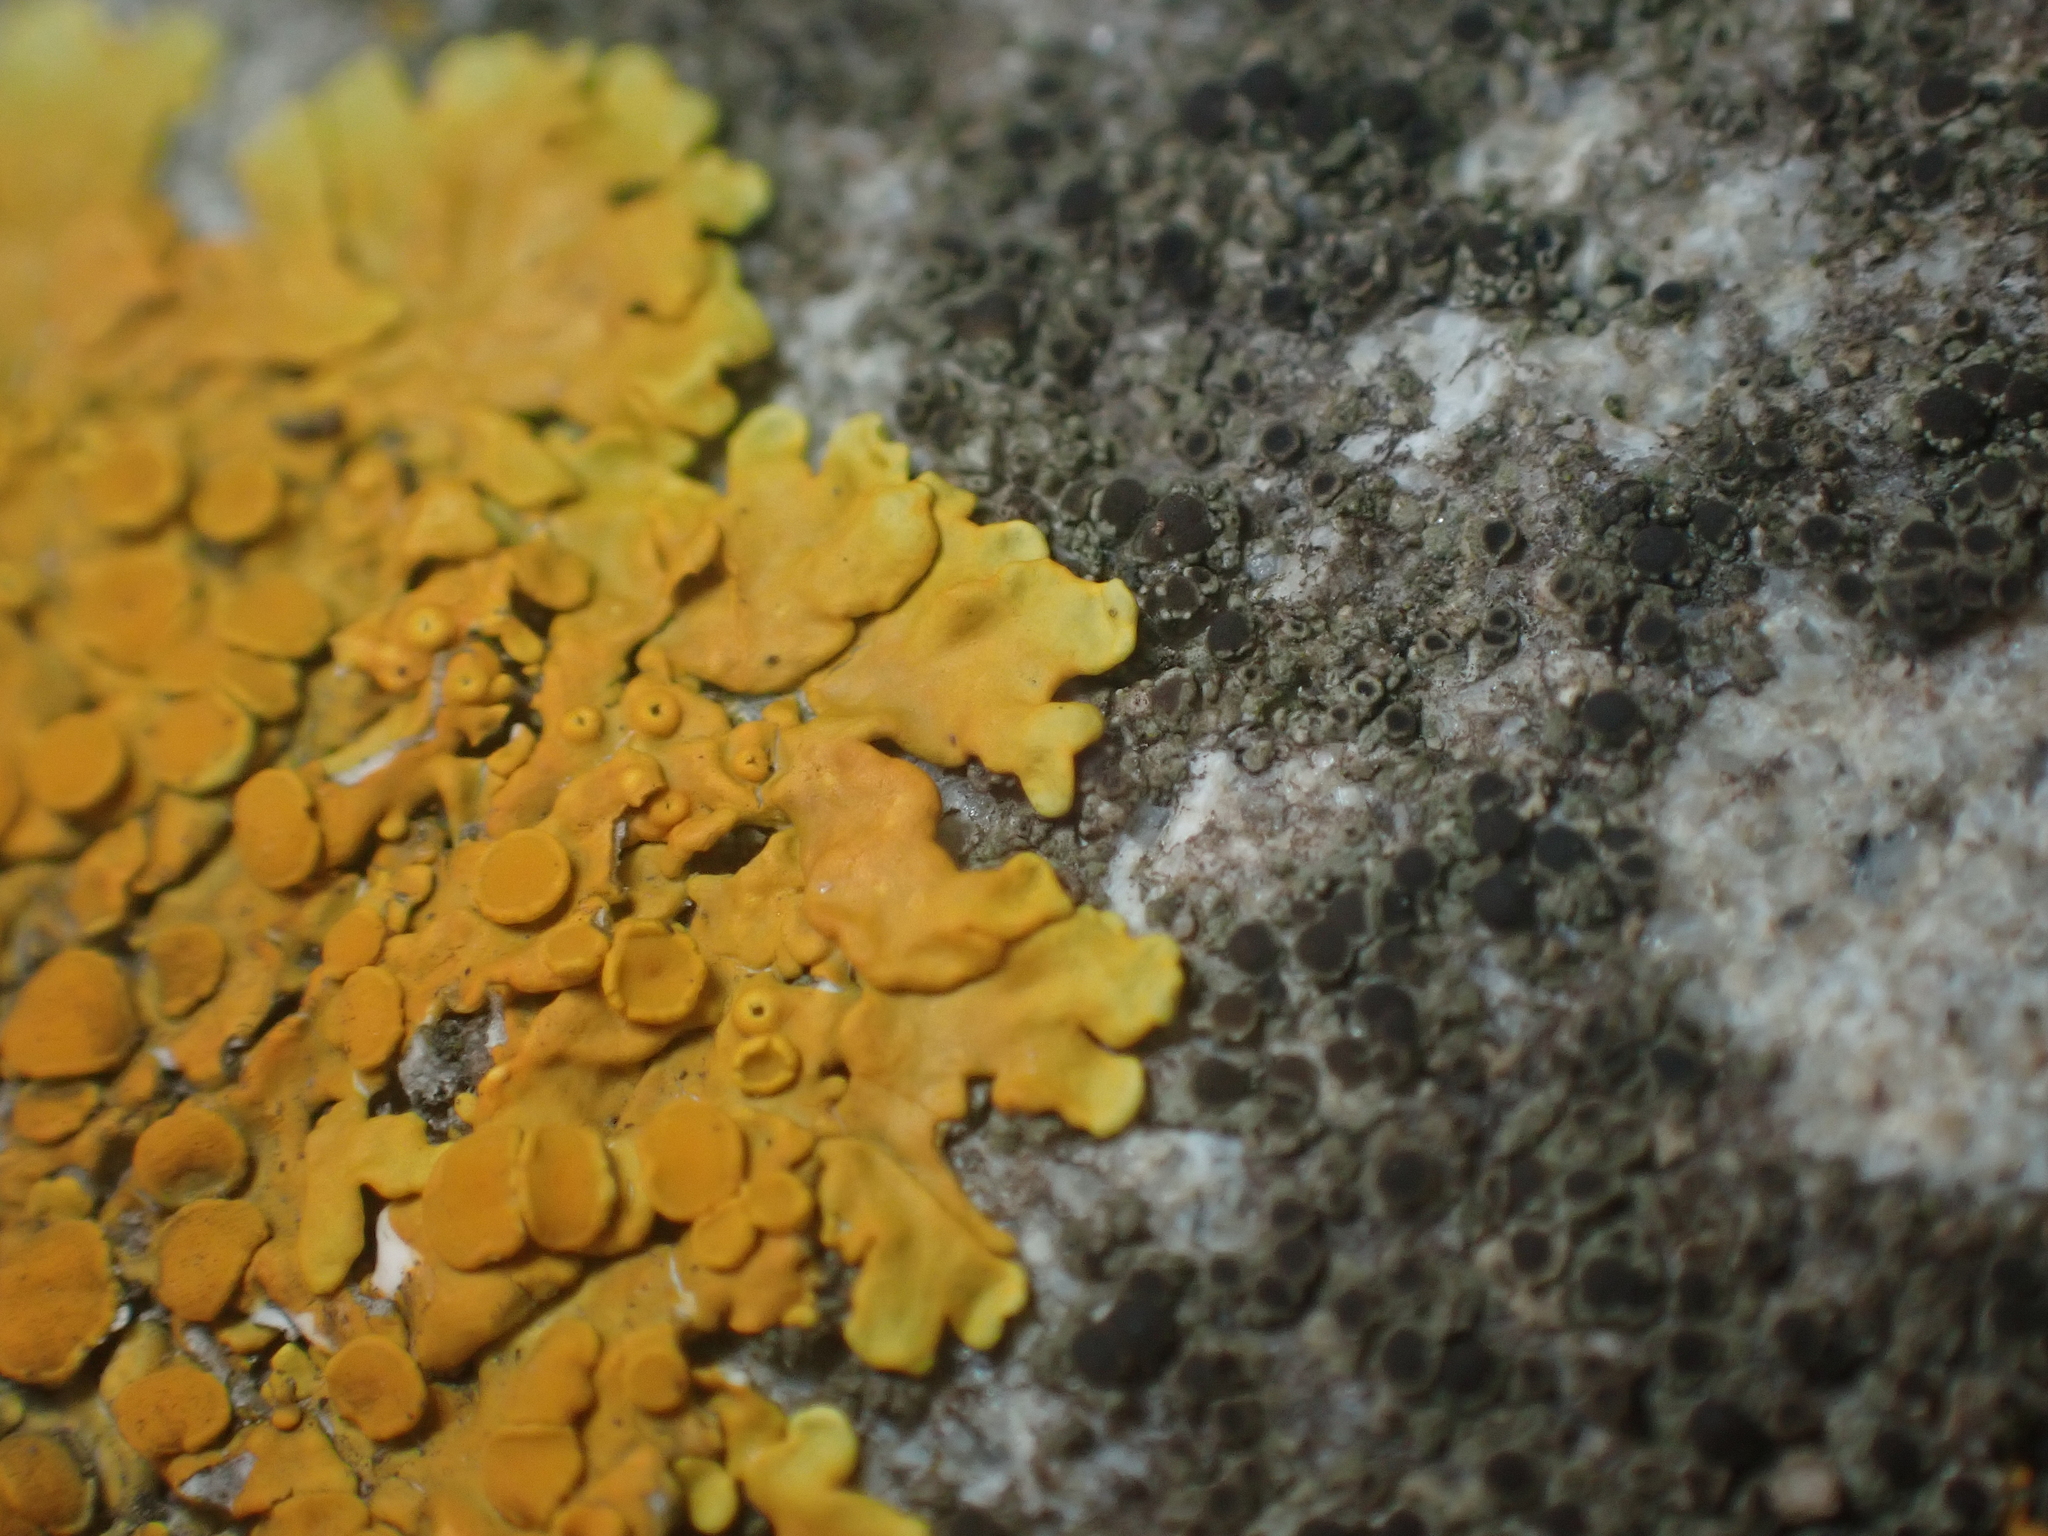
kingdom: Fungi
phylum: Ascomycota
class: Lecanoromycetes
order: Teloschistales
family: Teloschistaceae
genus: Dufourea
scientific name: Dufourea ligulata
